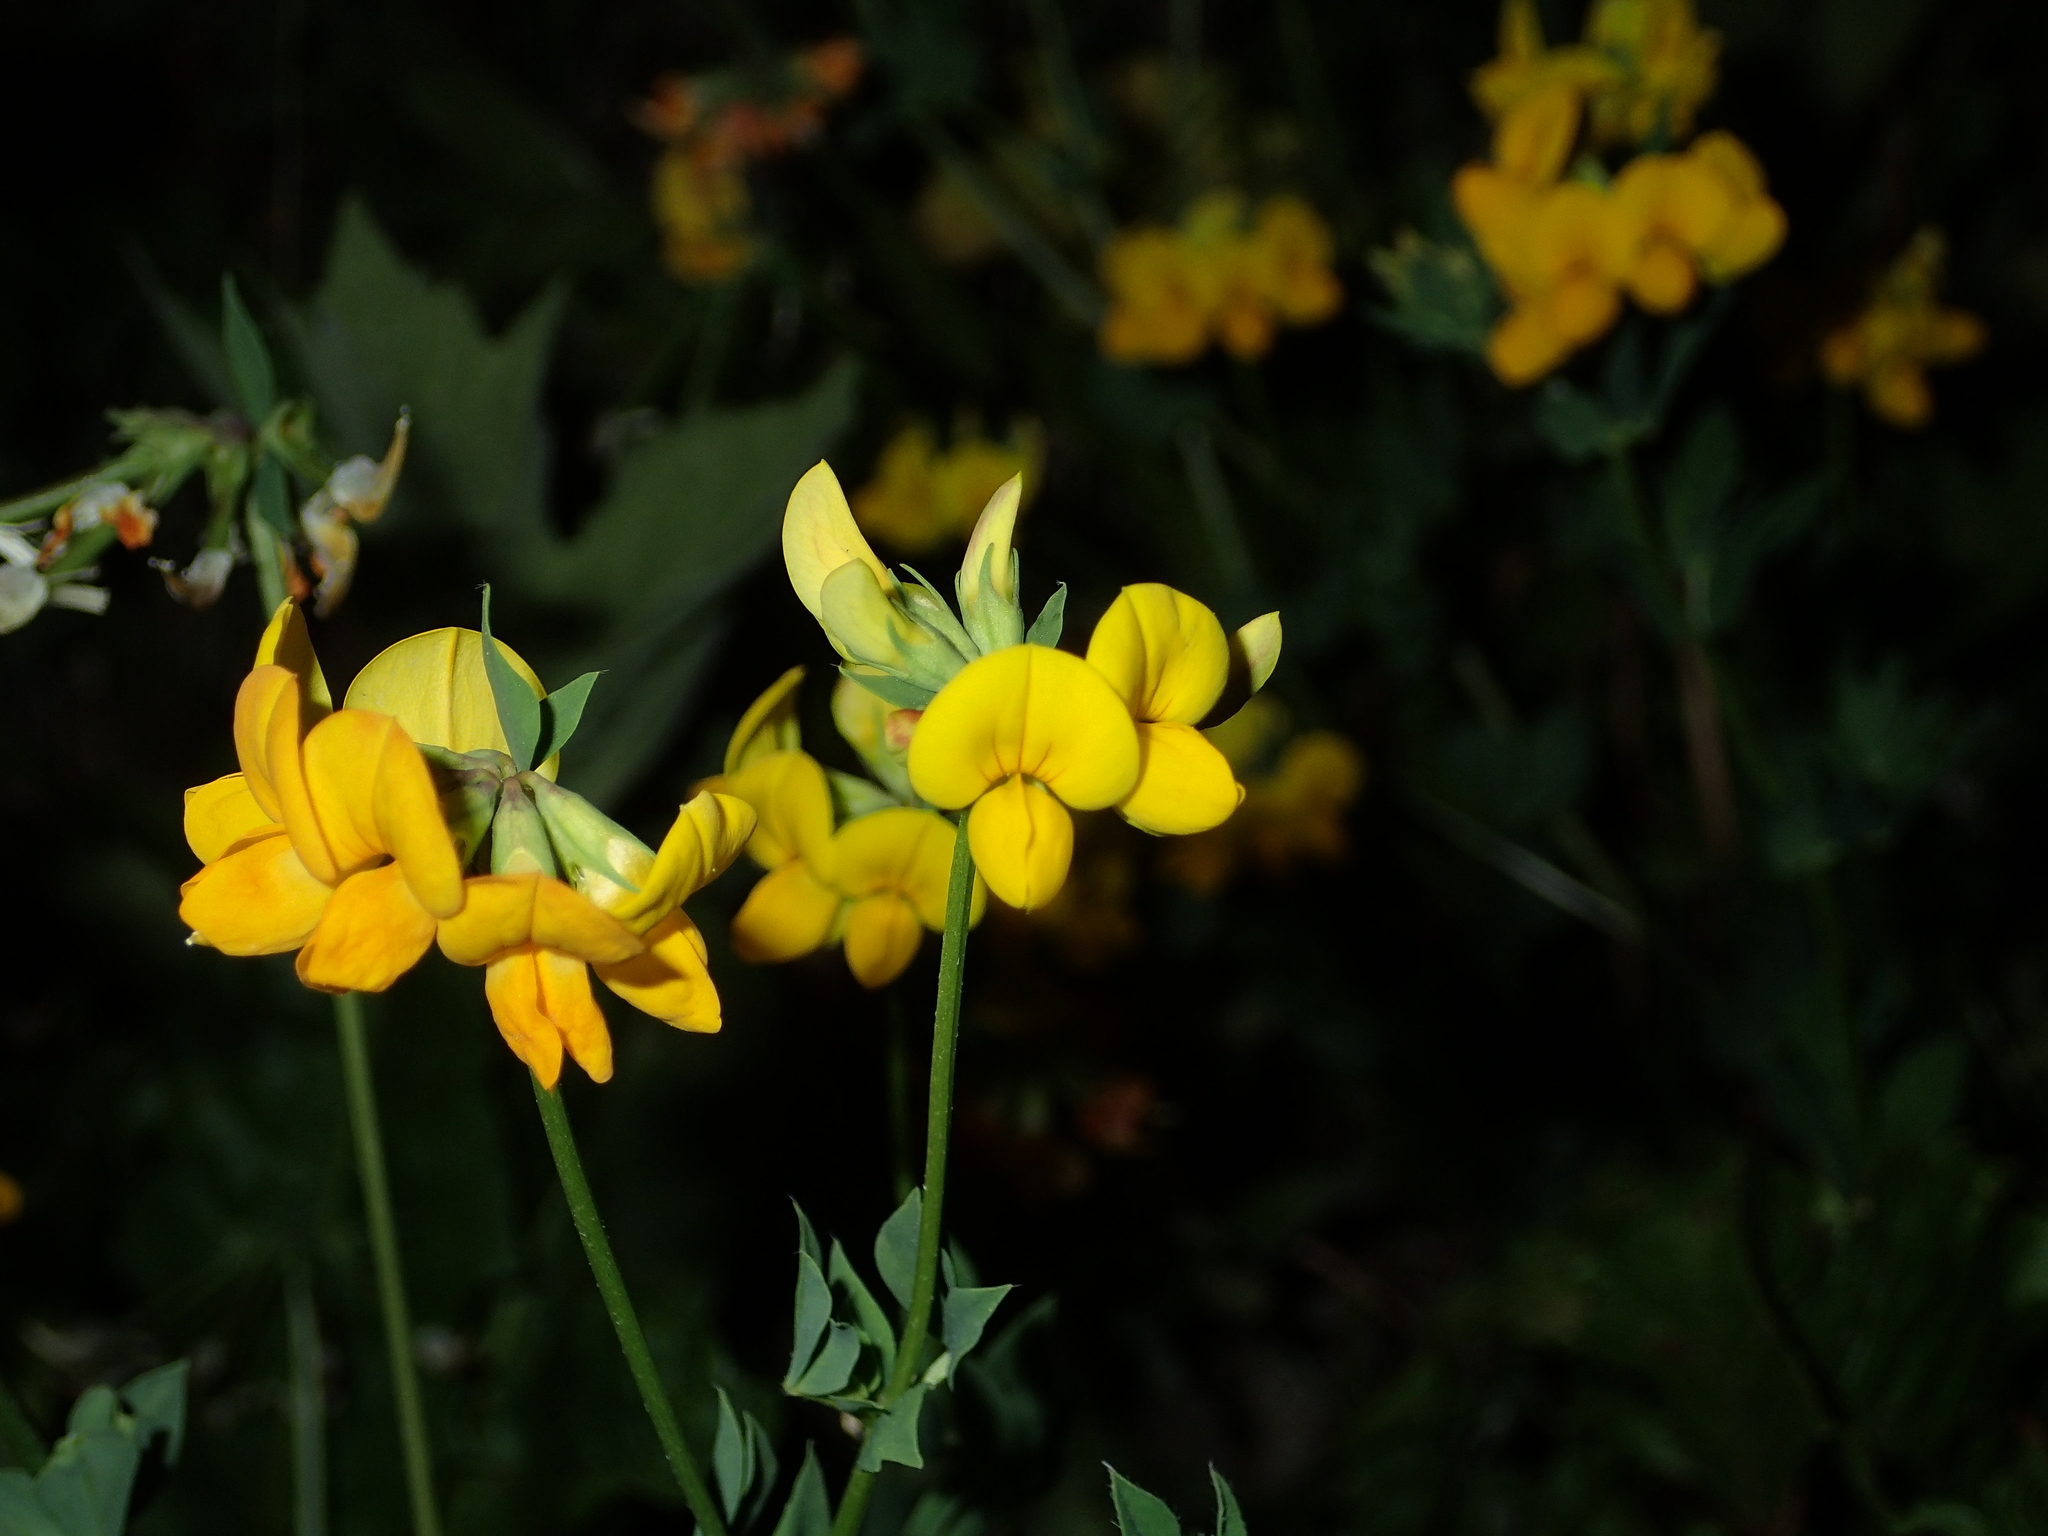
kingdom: Plantae
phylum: Tracheophyta
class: Magnoliopsida
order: Fabales
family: Fabaceae
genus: Lotus
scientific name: Lotus corniculatus
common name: Common bird's-foot-trefoil
